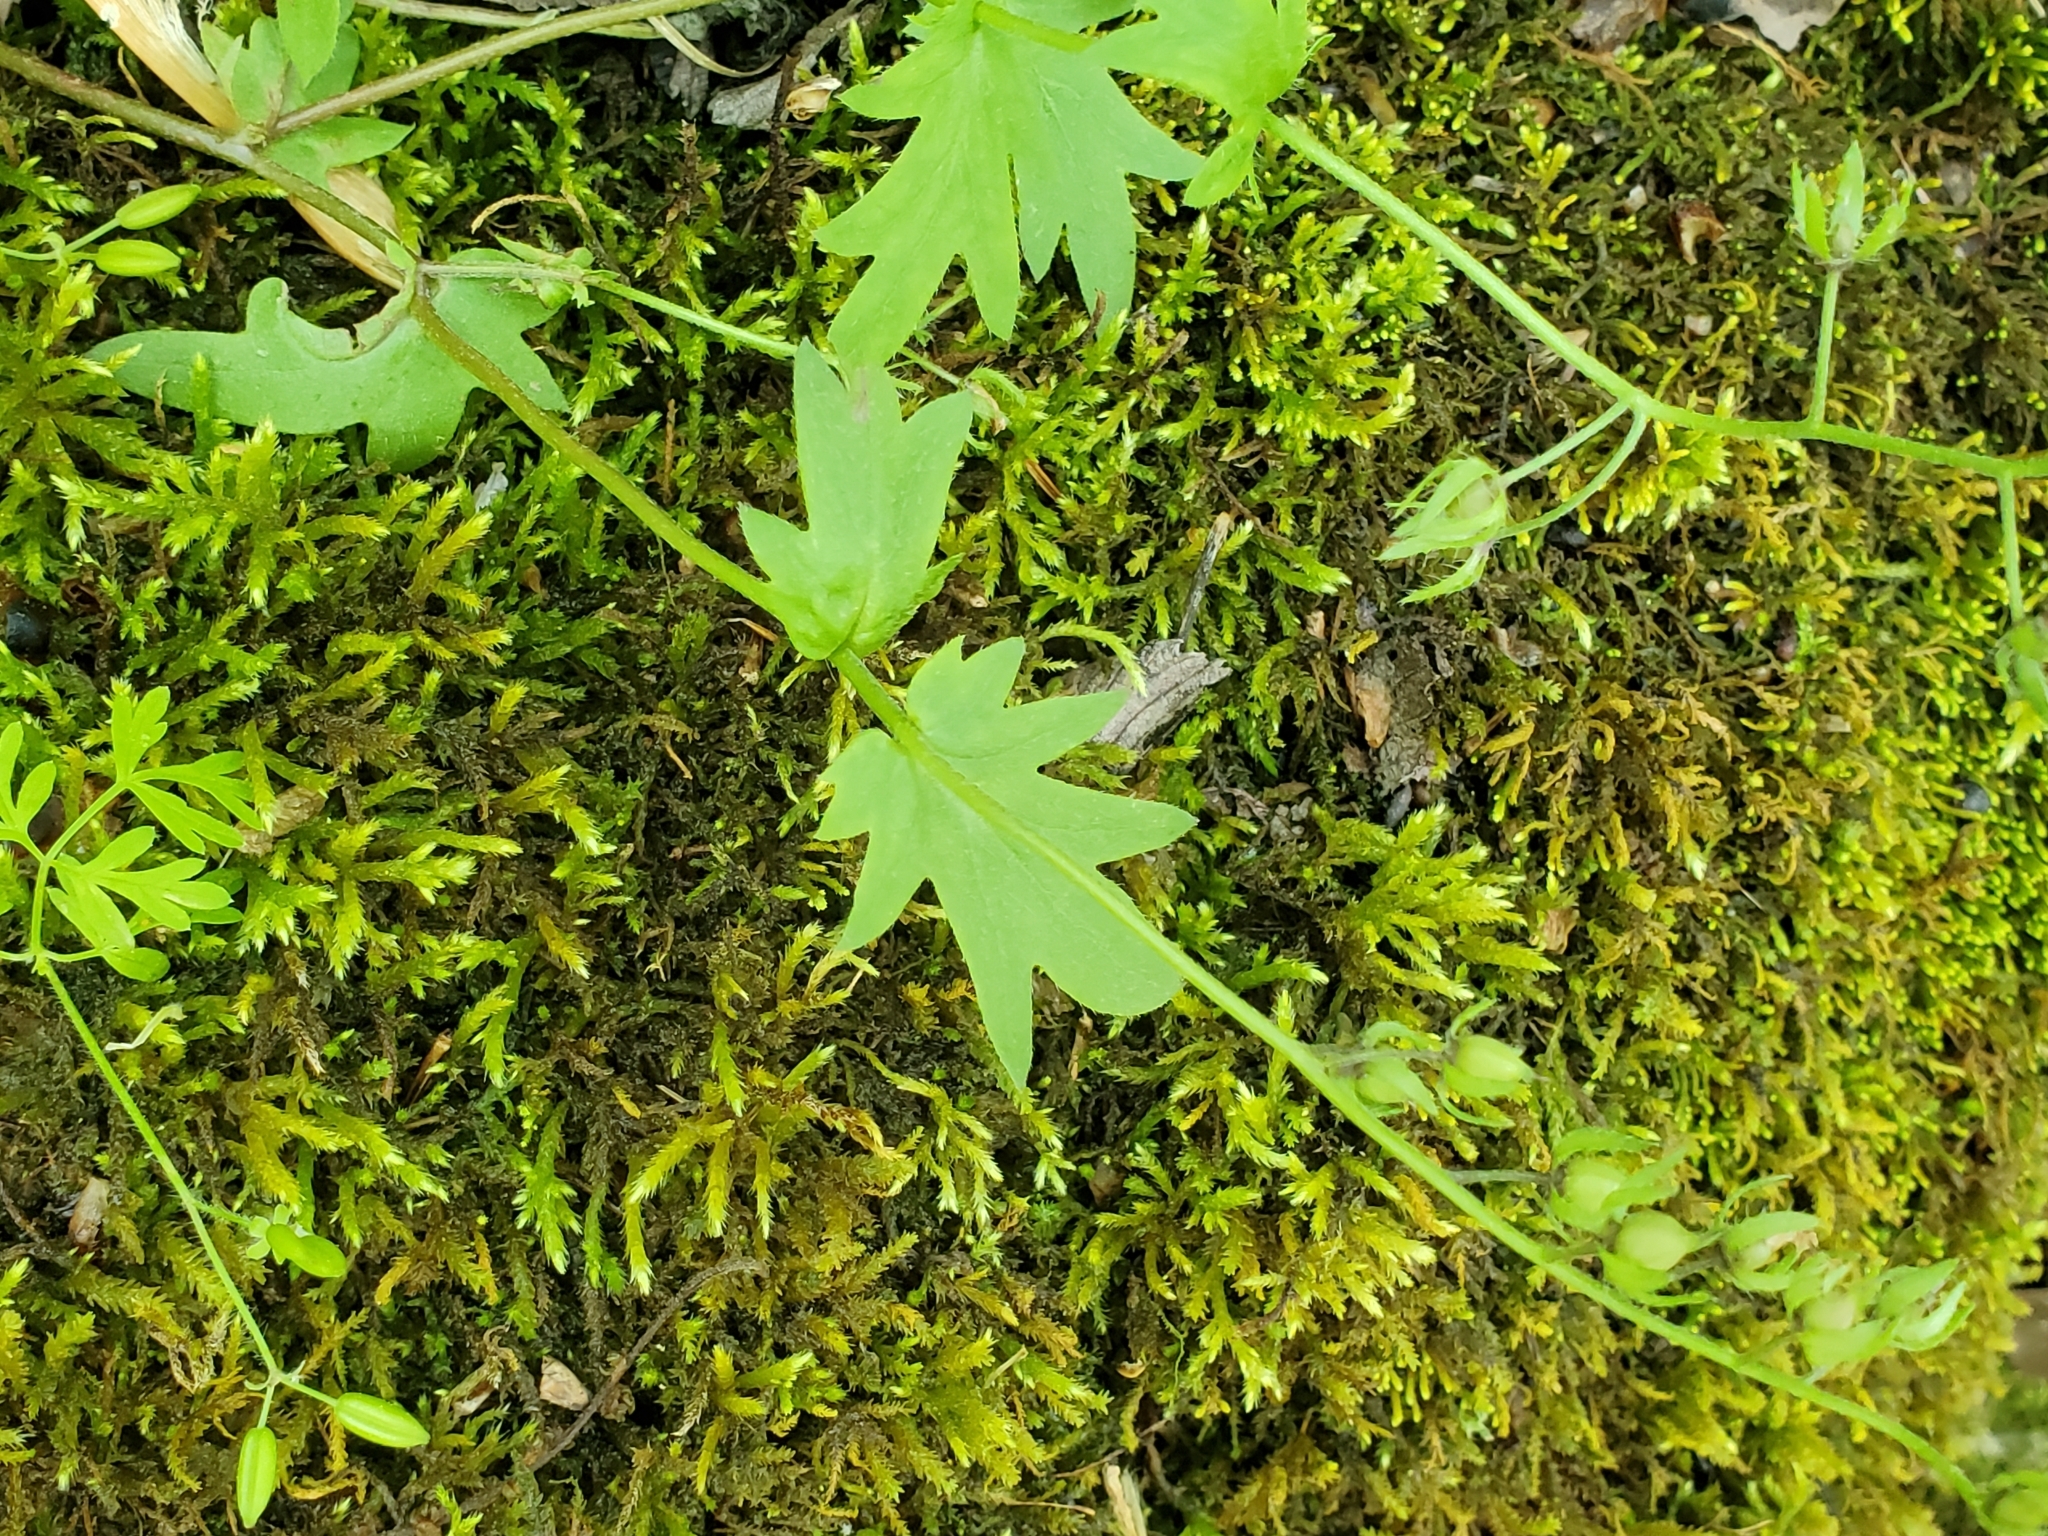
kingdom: Plantae
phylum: Tracheophyta
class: Magnoliopsida
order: Boraginales
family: Hydrophyllaceae
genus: Phacelia
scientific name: Phacelia purshii
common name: Miami-mist
